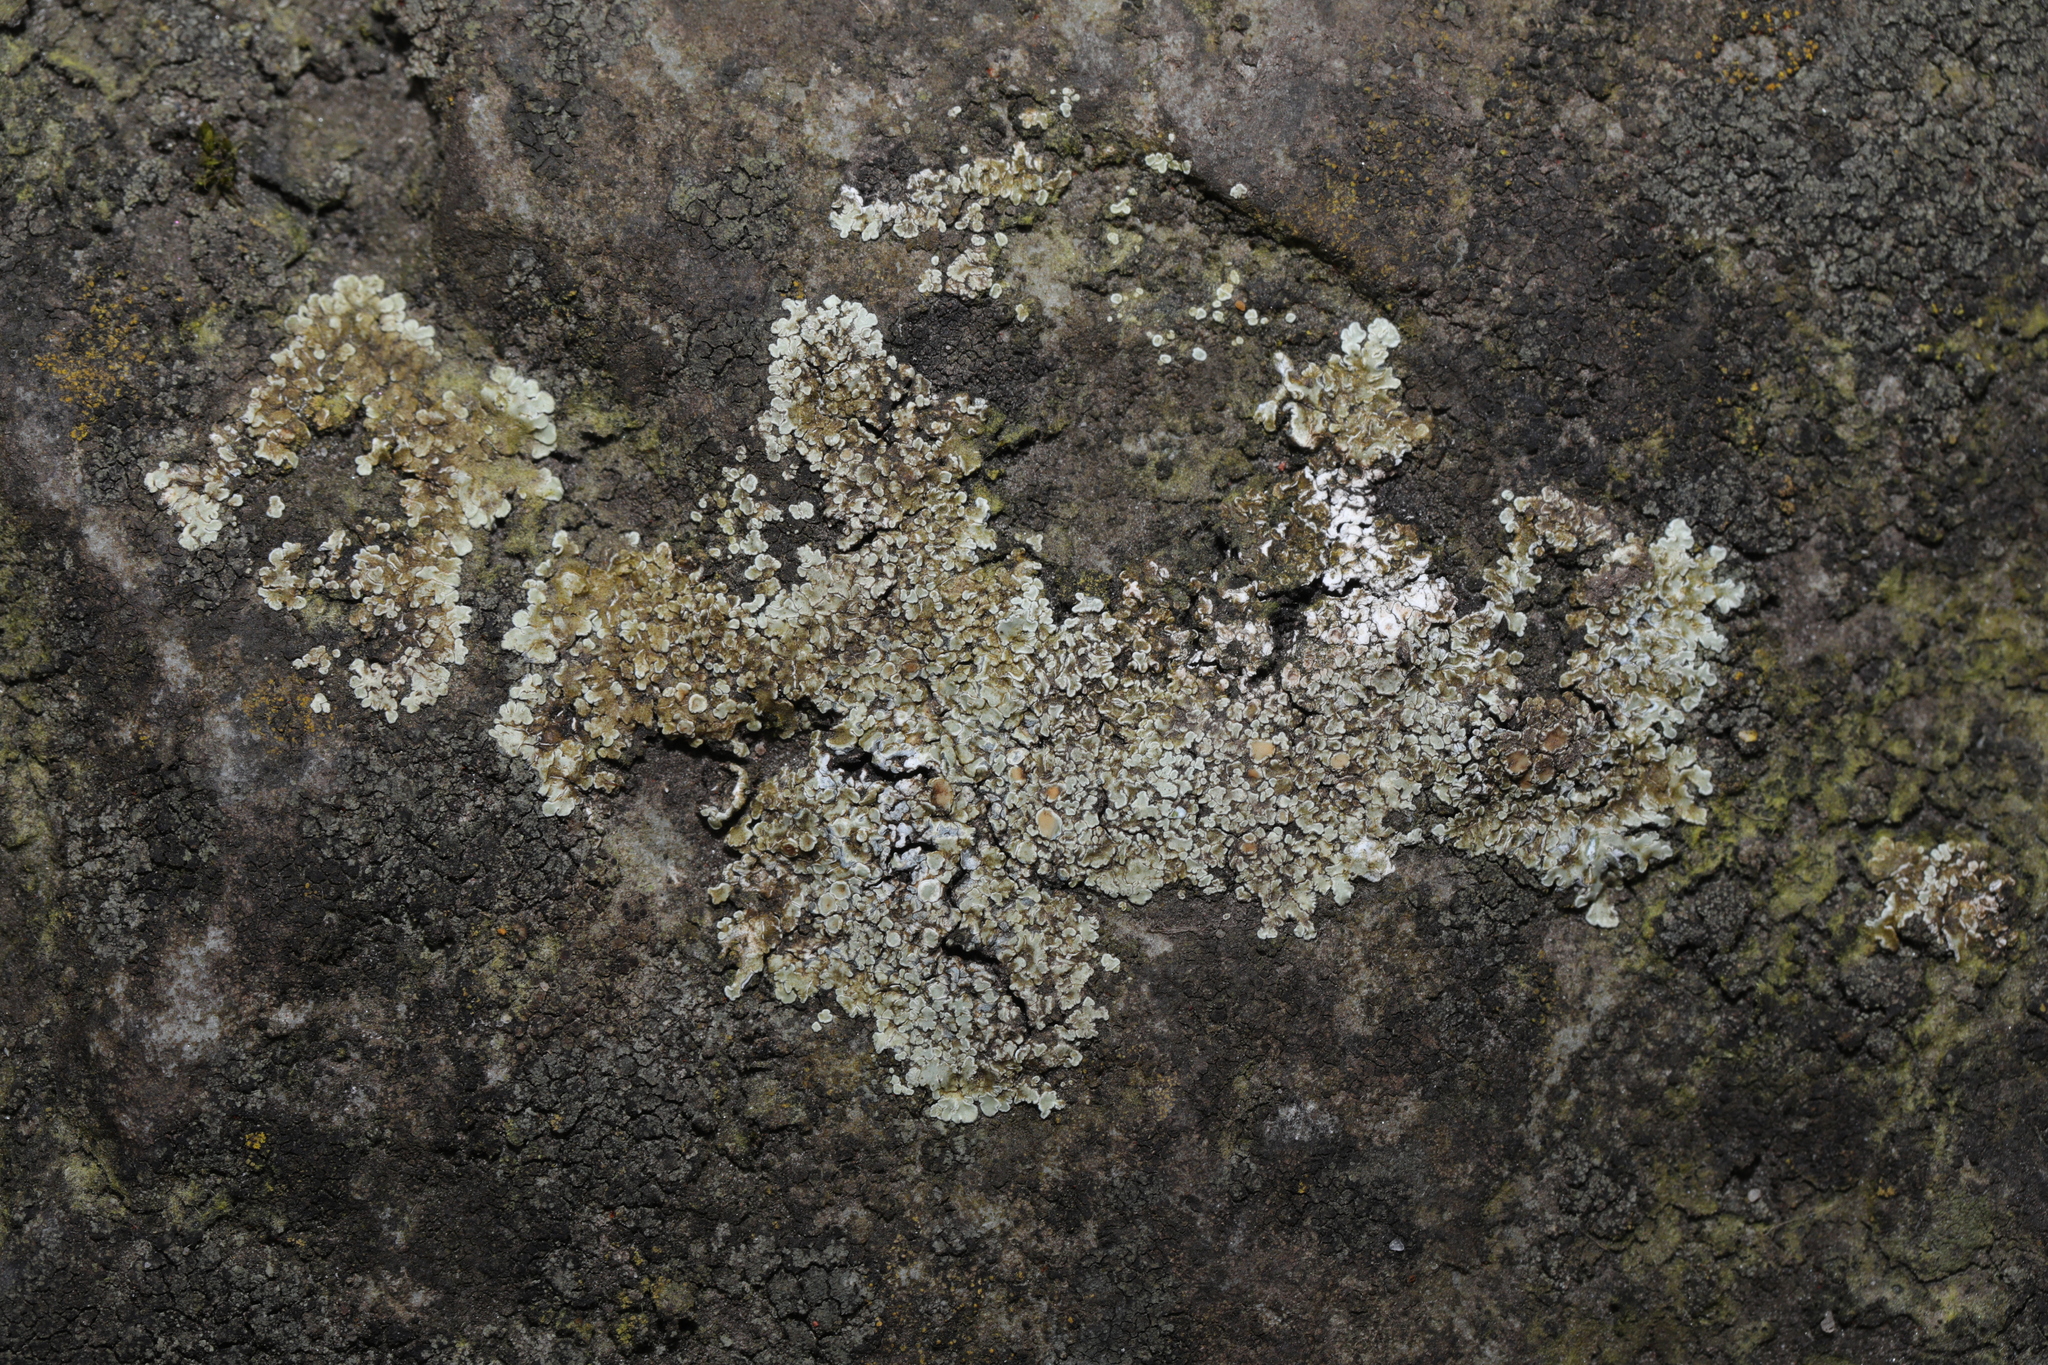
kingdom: Fungi
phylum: Ascomycota
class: Lecanoromycetes
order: Lecanorales
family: Lecanoraceae
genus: Protoparmeliopsis
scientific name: Protoparmeliopsis muralis
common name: Stonewall rim lichen
